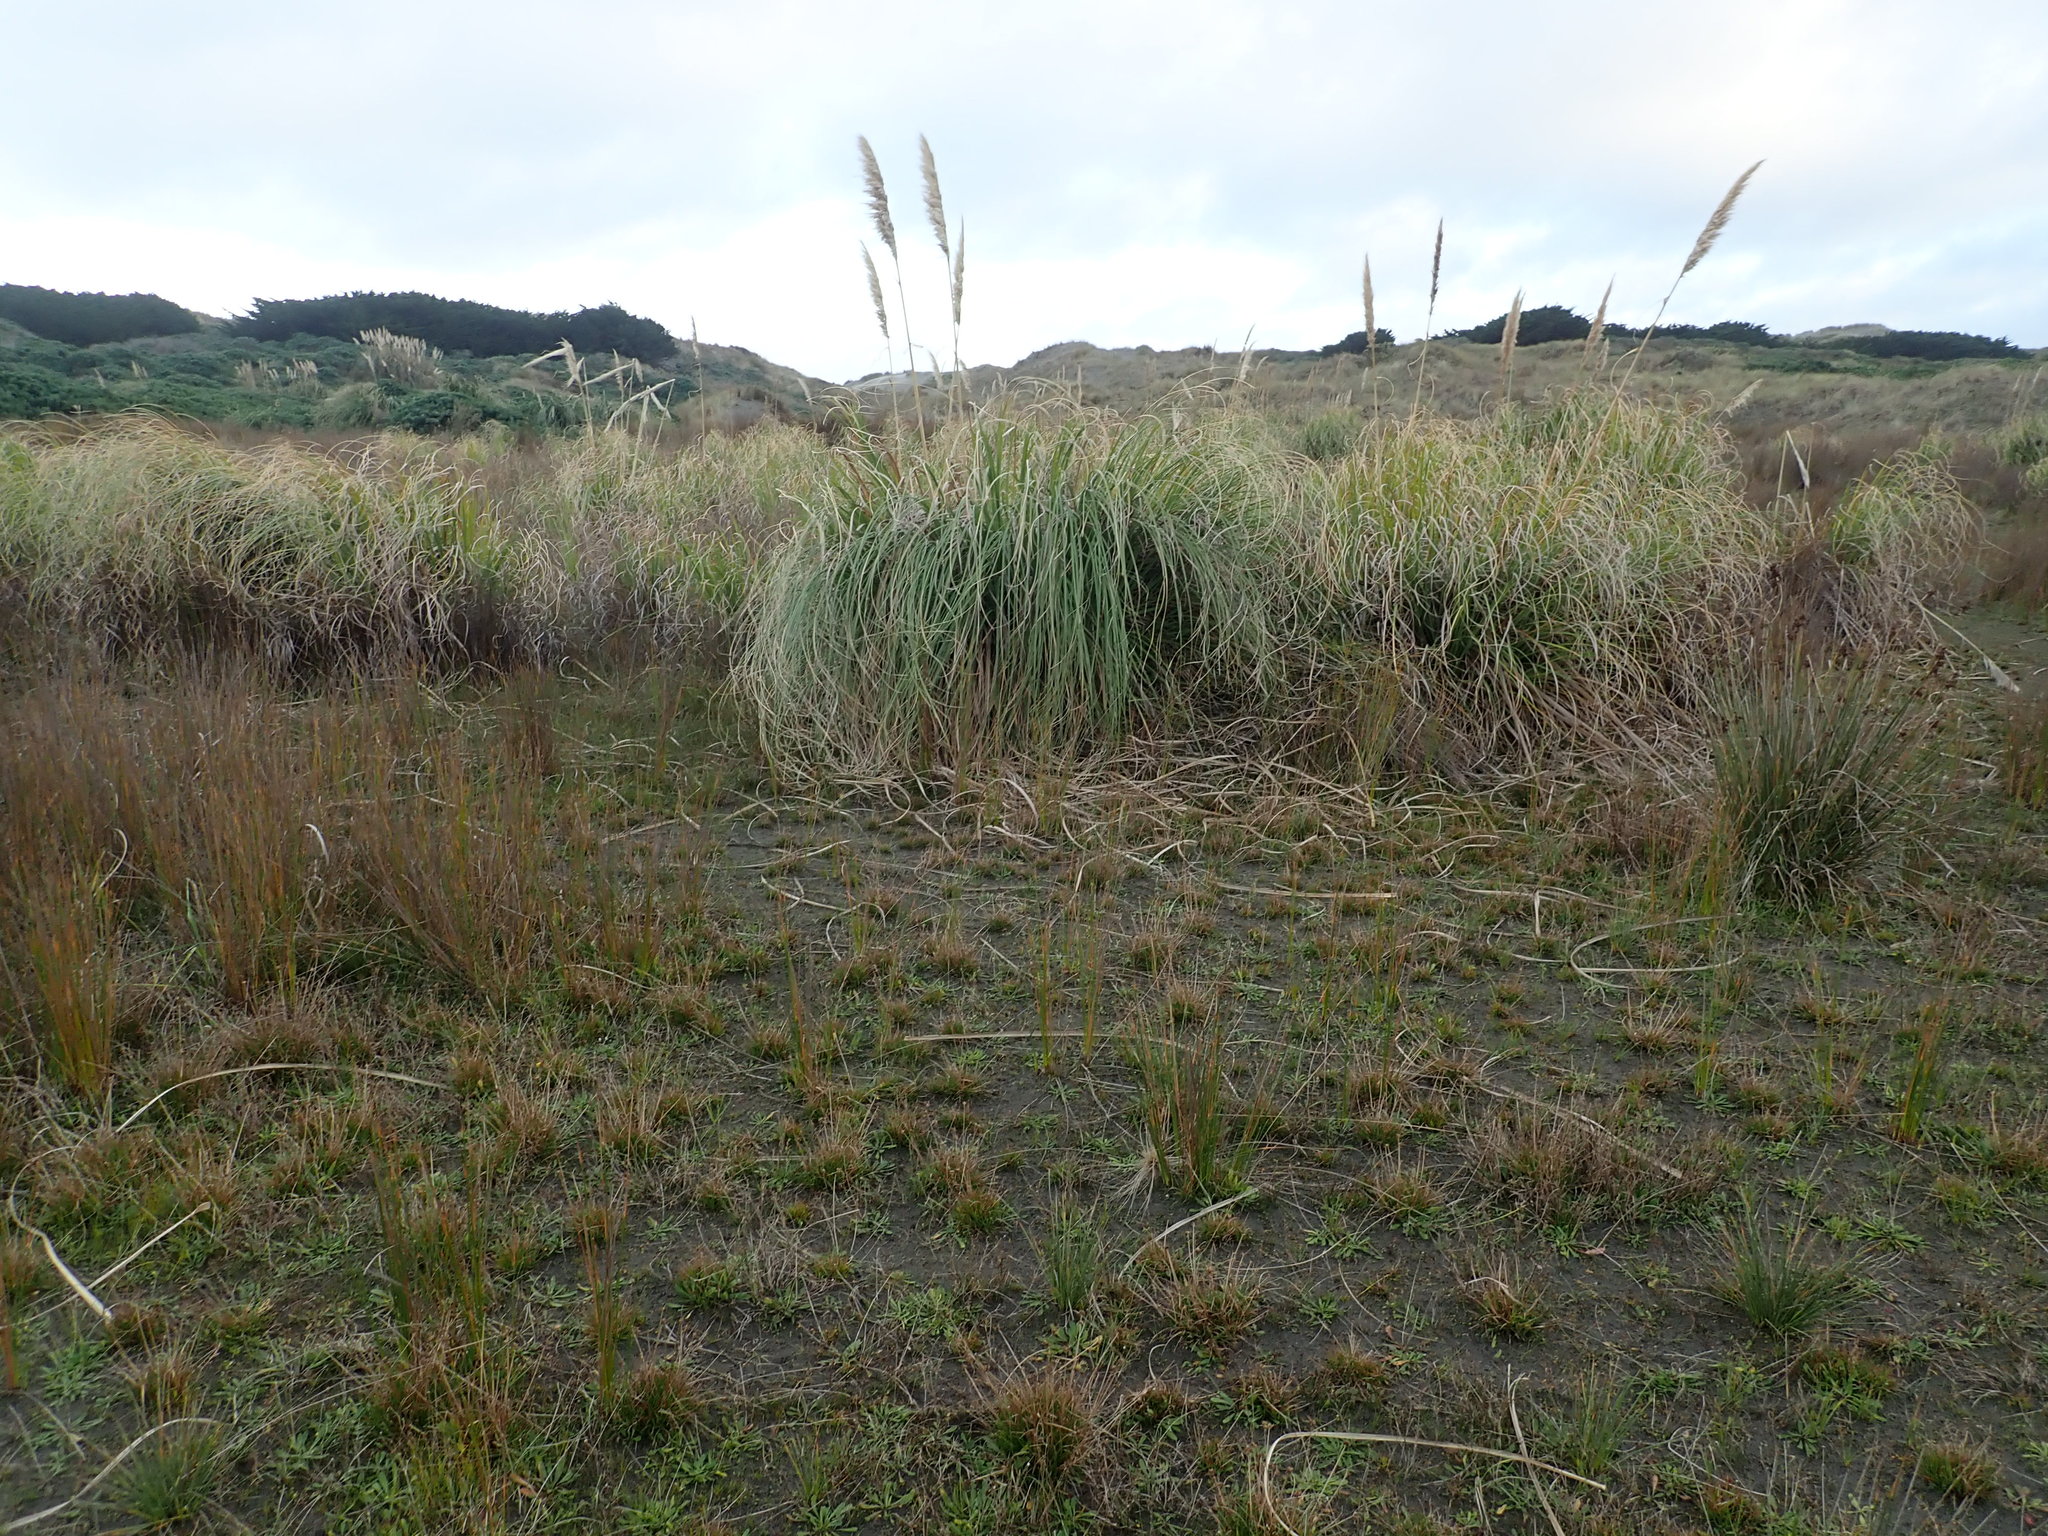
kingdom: Plantae
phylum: Tracheophyta
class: Liliopsida
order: Poales
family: Poaceae
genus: Cortaderia
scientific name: Cortaderia selloana
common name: Uruguayan pampas grass
